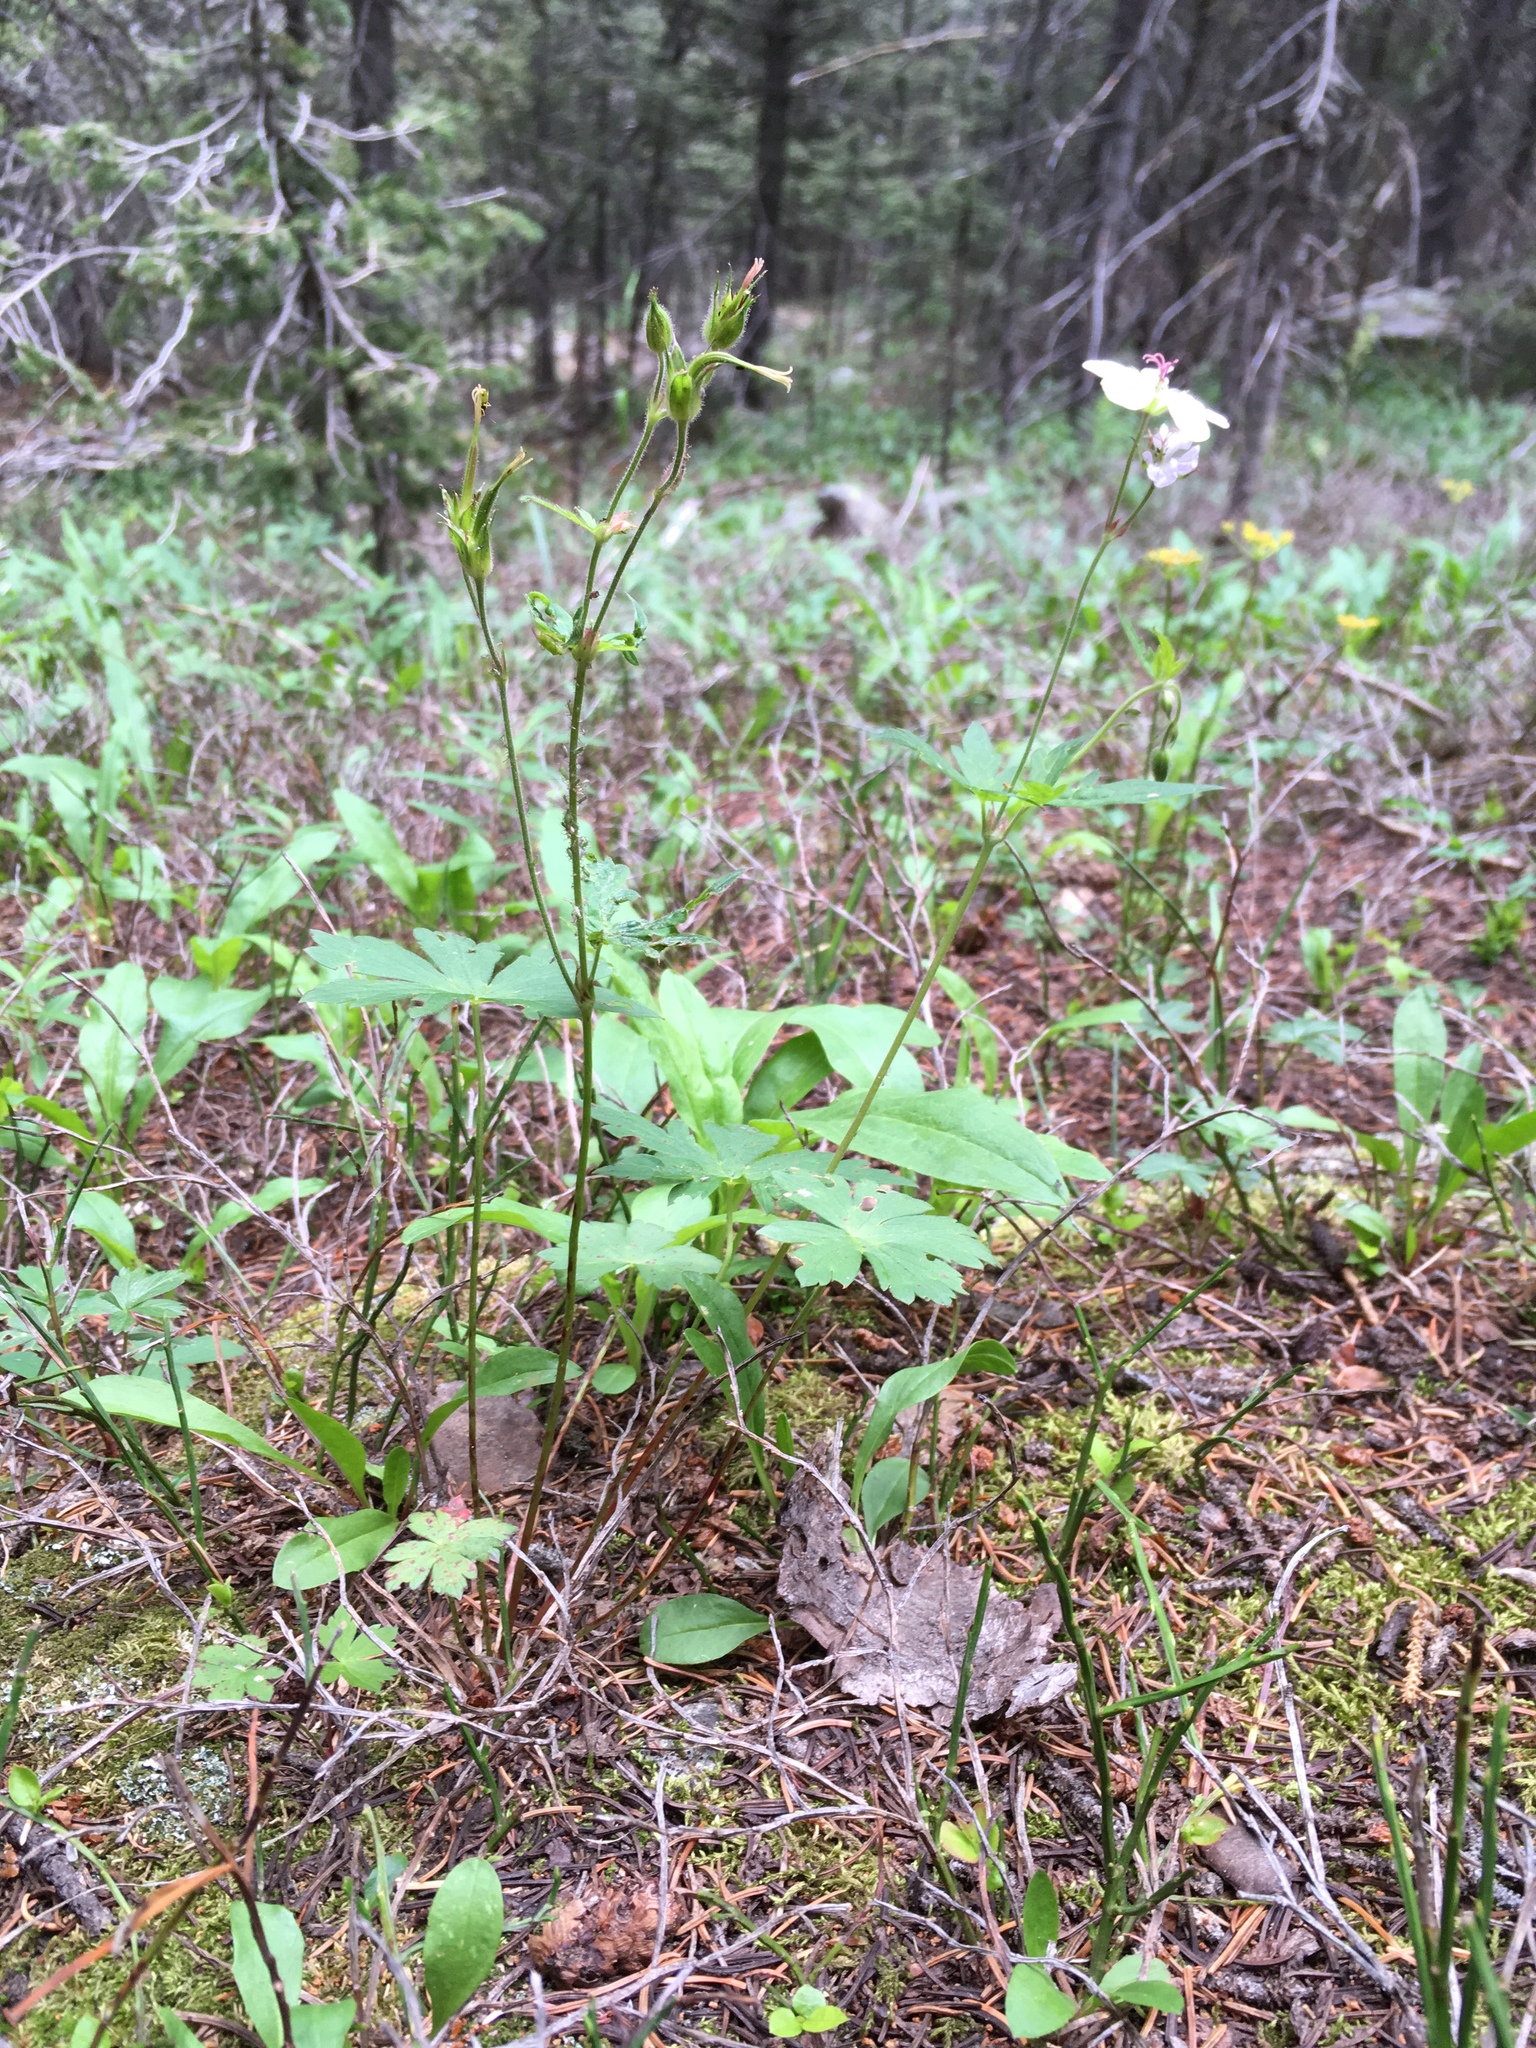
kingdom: Plantae
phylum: Tracheophyta
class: Magnoliopsida
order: Geraniales
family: Geraniaceae
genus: Geranium
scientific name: Geranium richardsonii
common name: Richardson's crane's-bill
